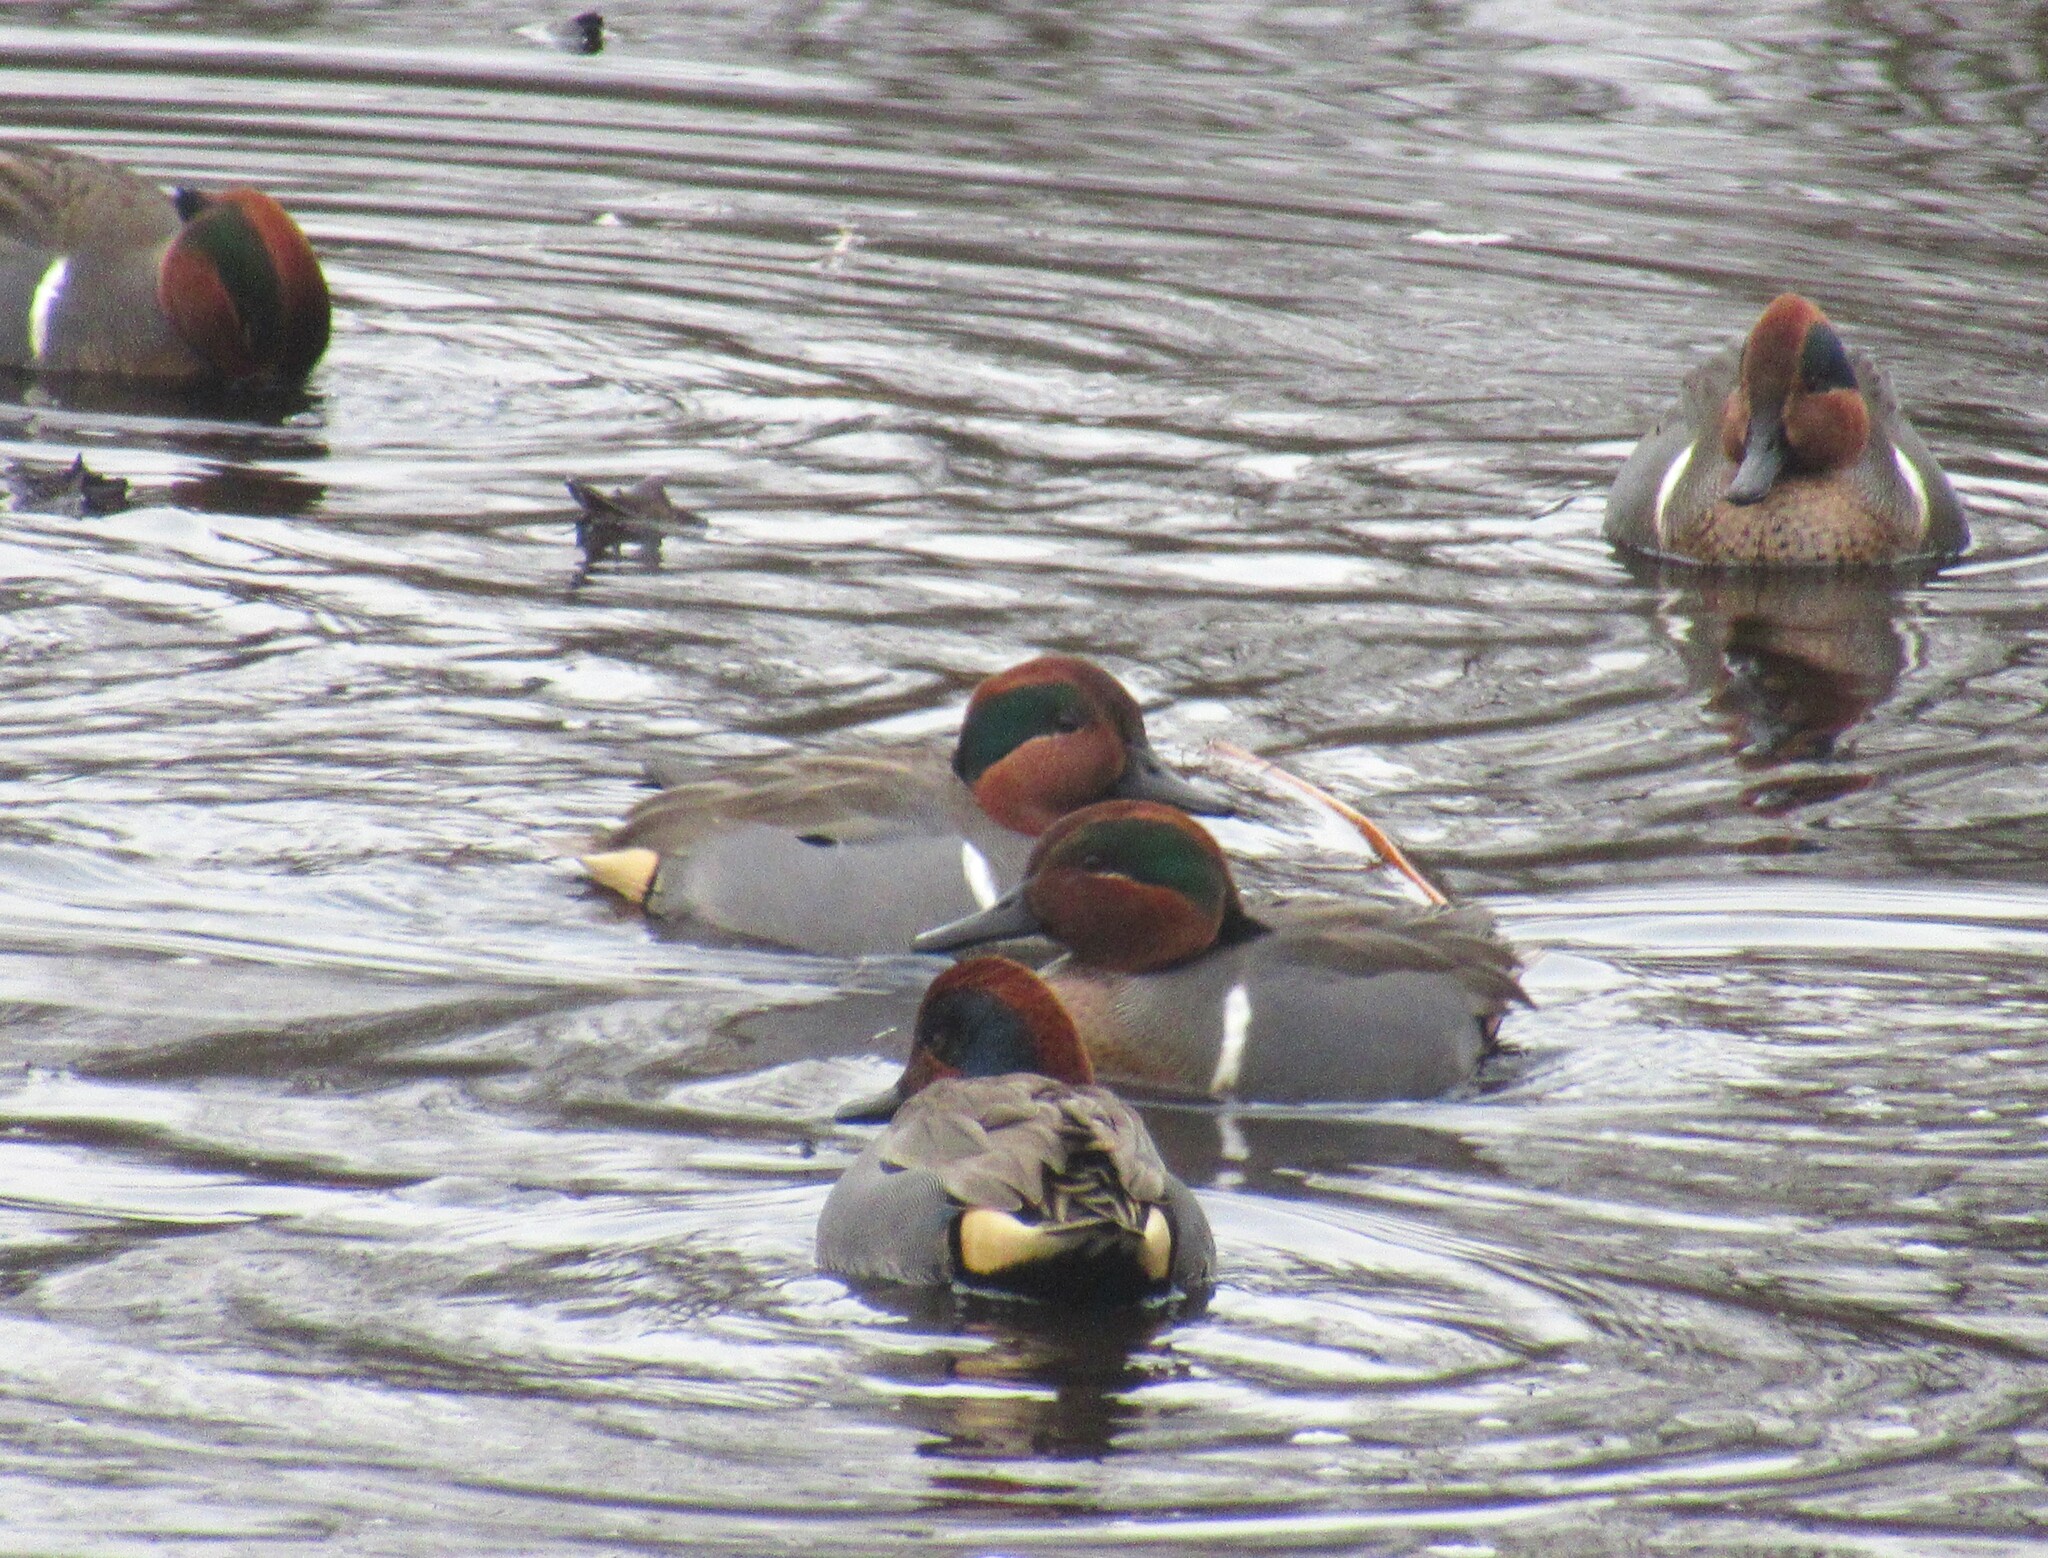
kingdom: Animalia
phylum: Chordata
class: Aves
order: Anseriformes
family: Anatidae
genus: Anas
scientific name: Anas crecca
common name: Eurasian teal
